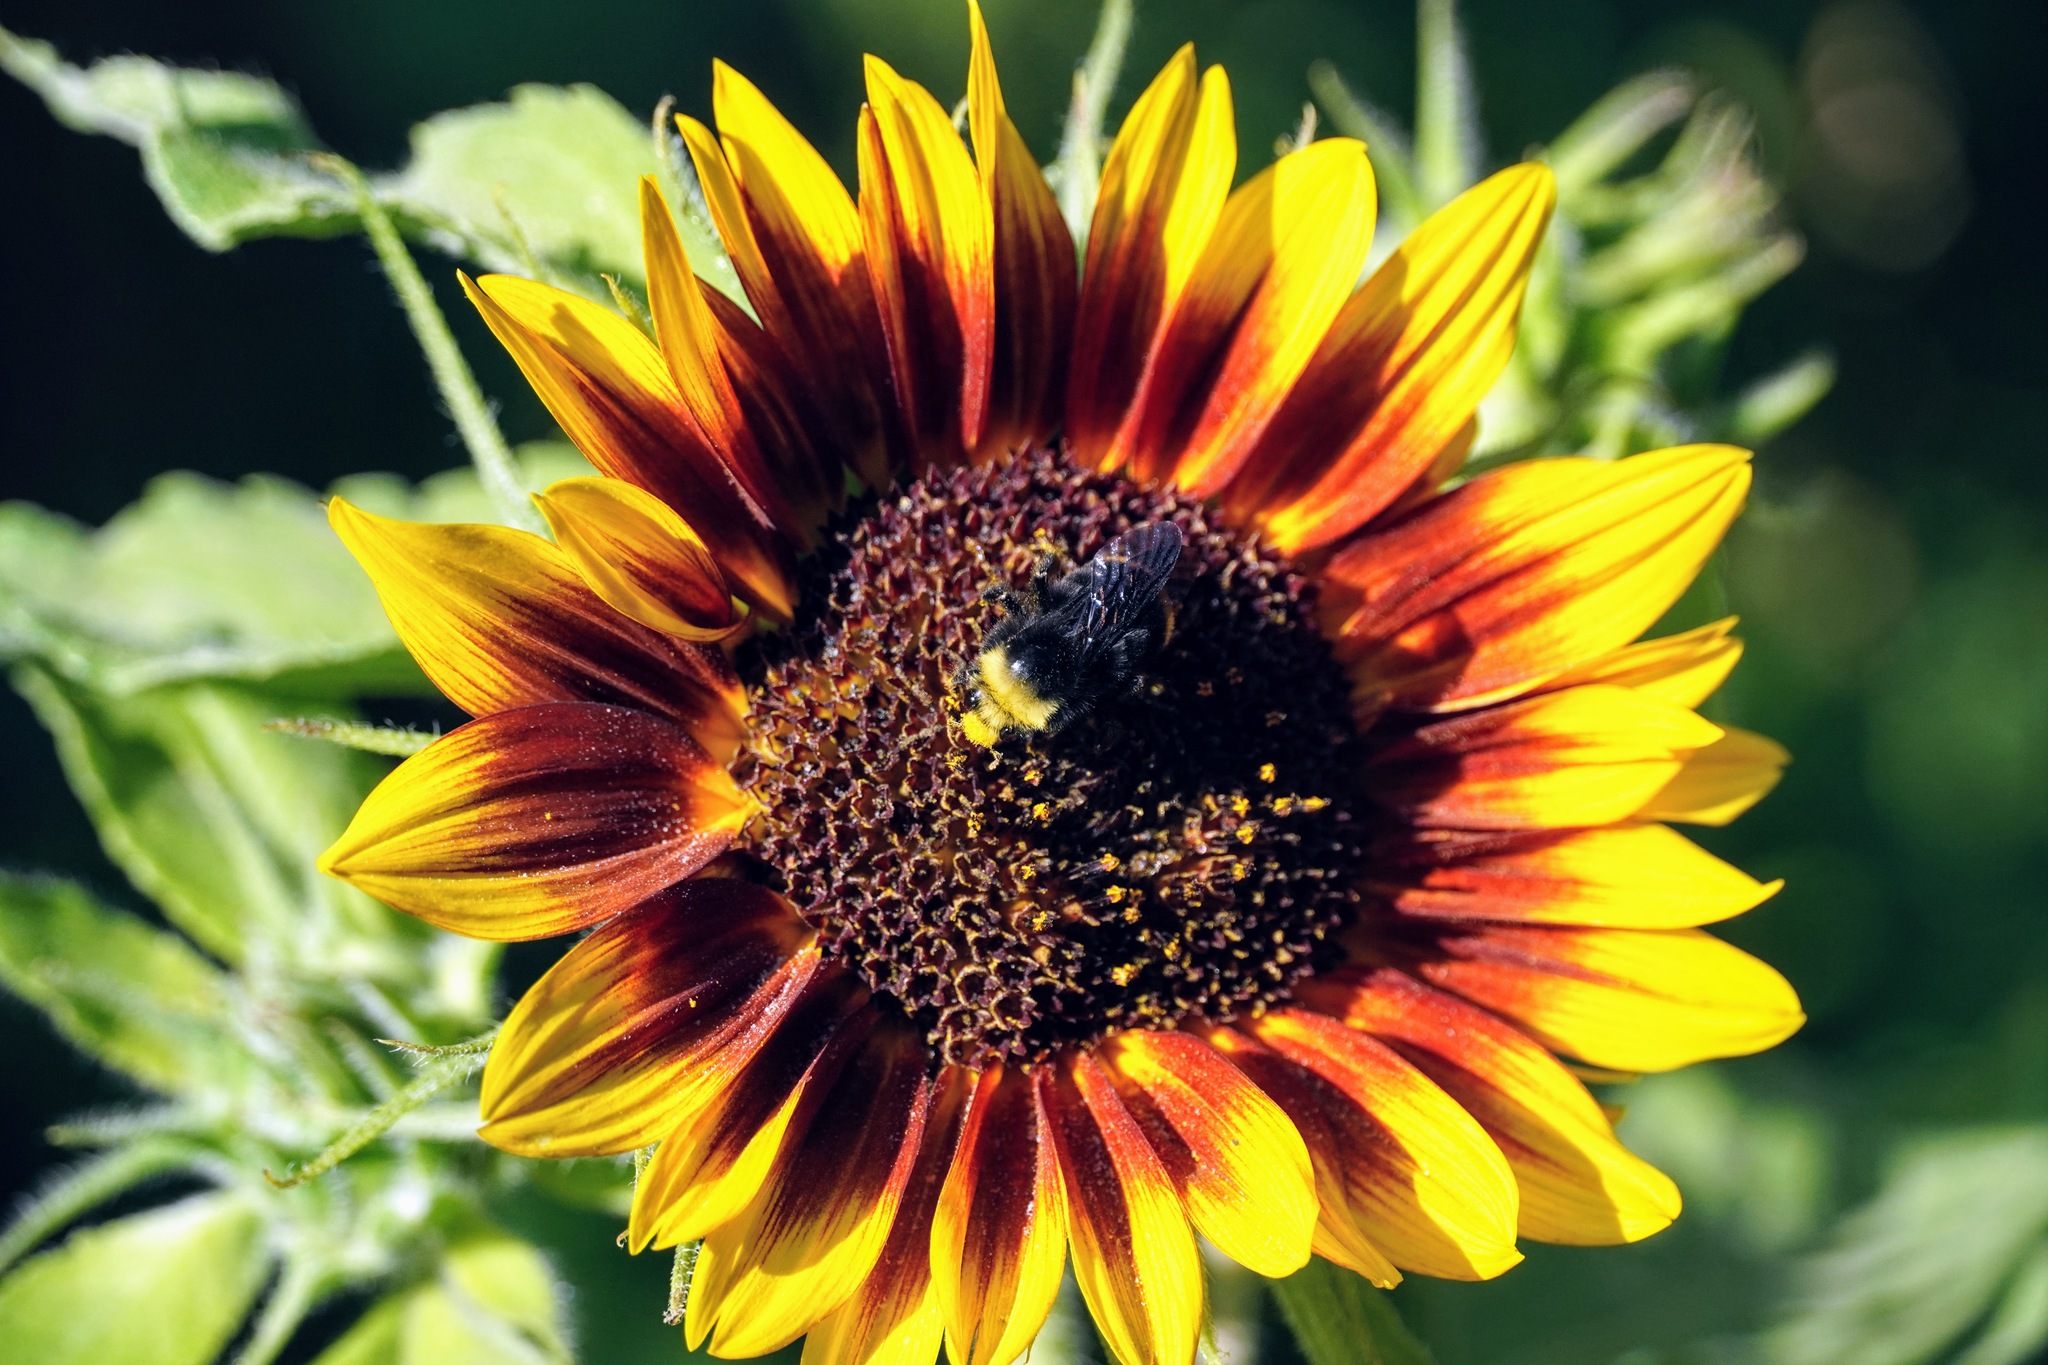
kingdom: Animalia
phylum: Arthropoda
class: Insecta
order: Hymenoptera
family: Apidae
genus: Bombus
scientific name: Bombus vosnesenskii
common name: Vosnesensky bumble bee
